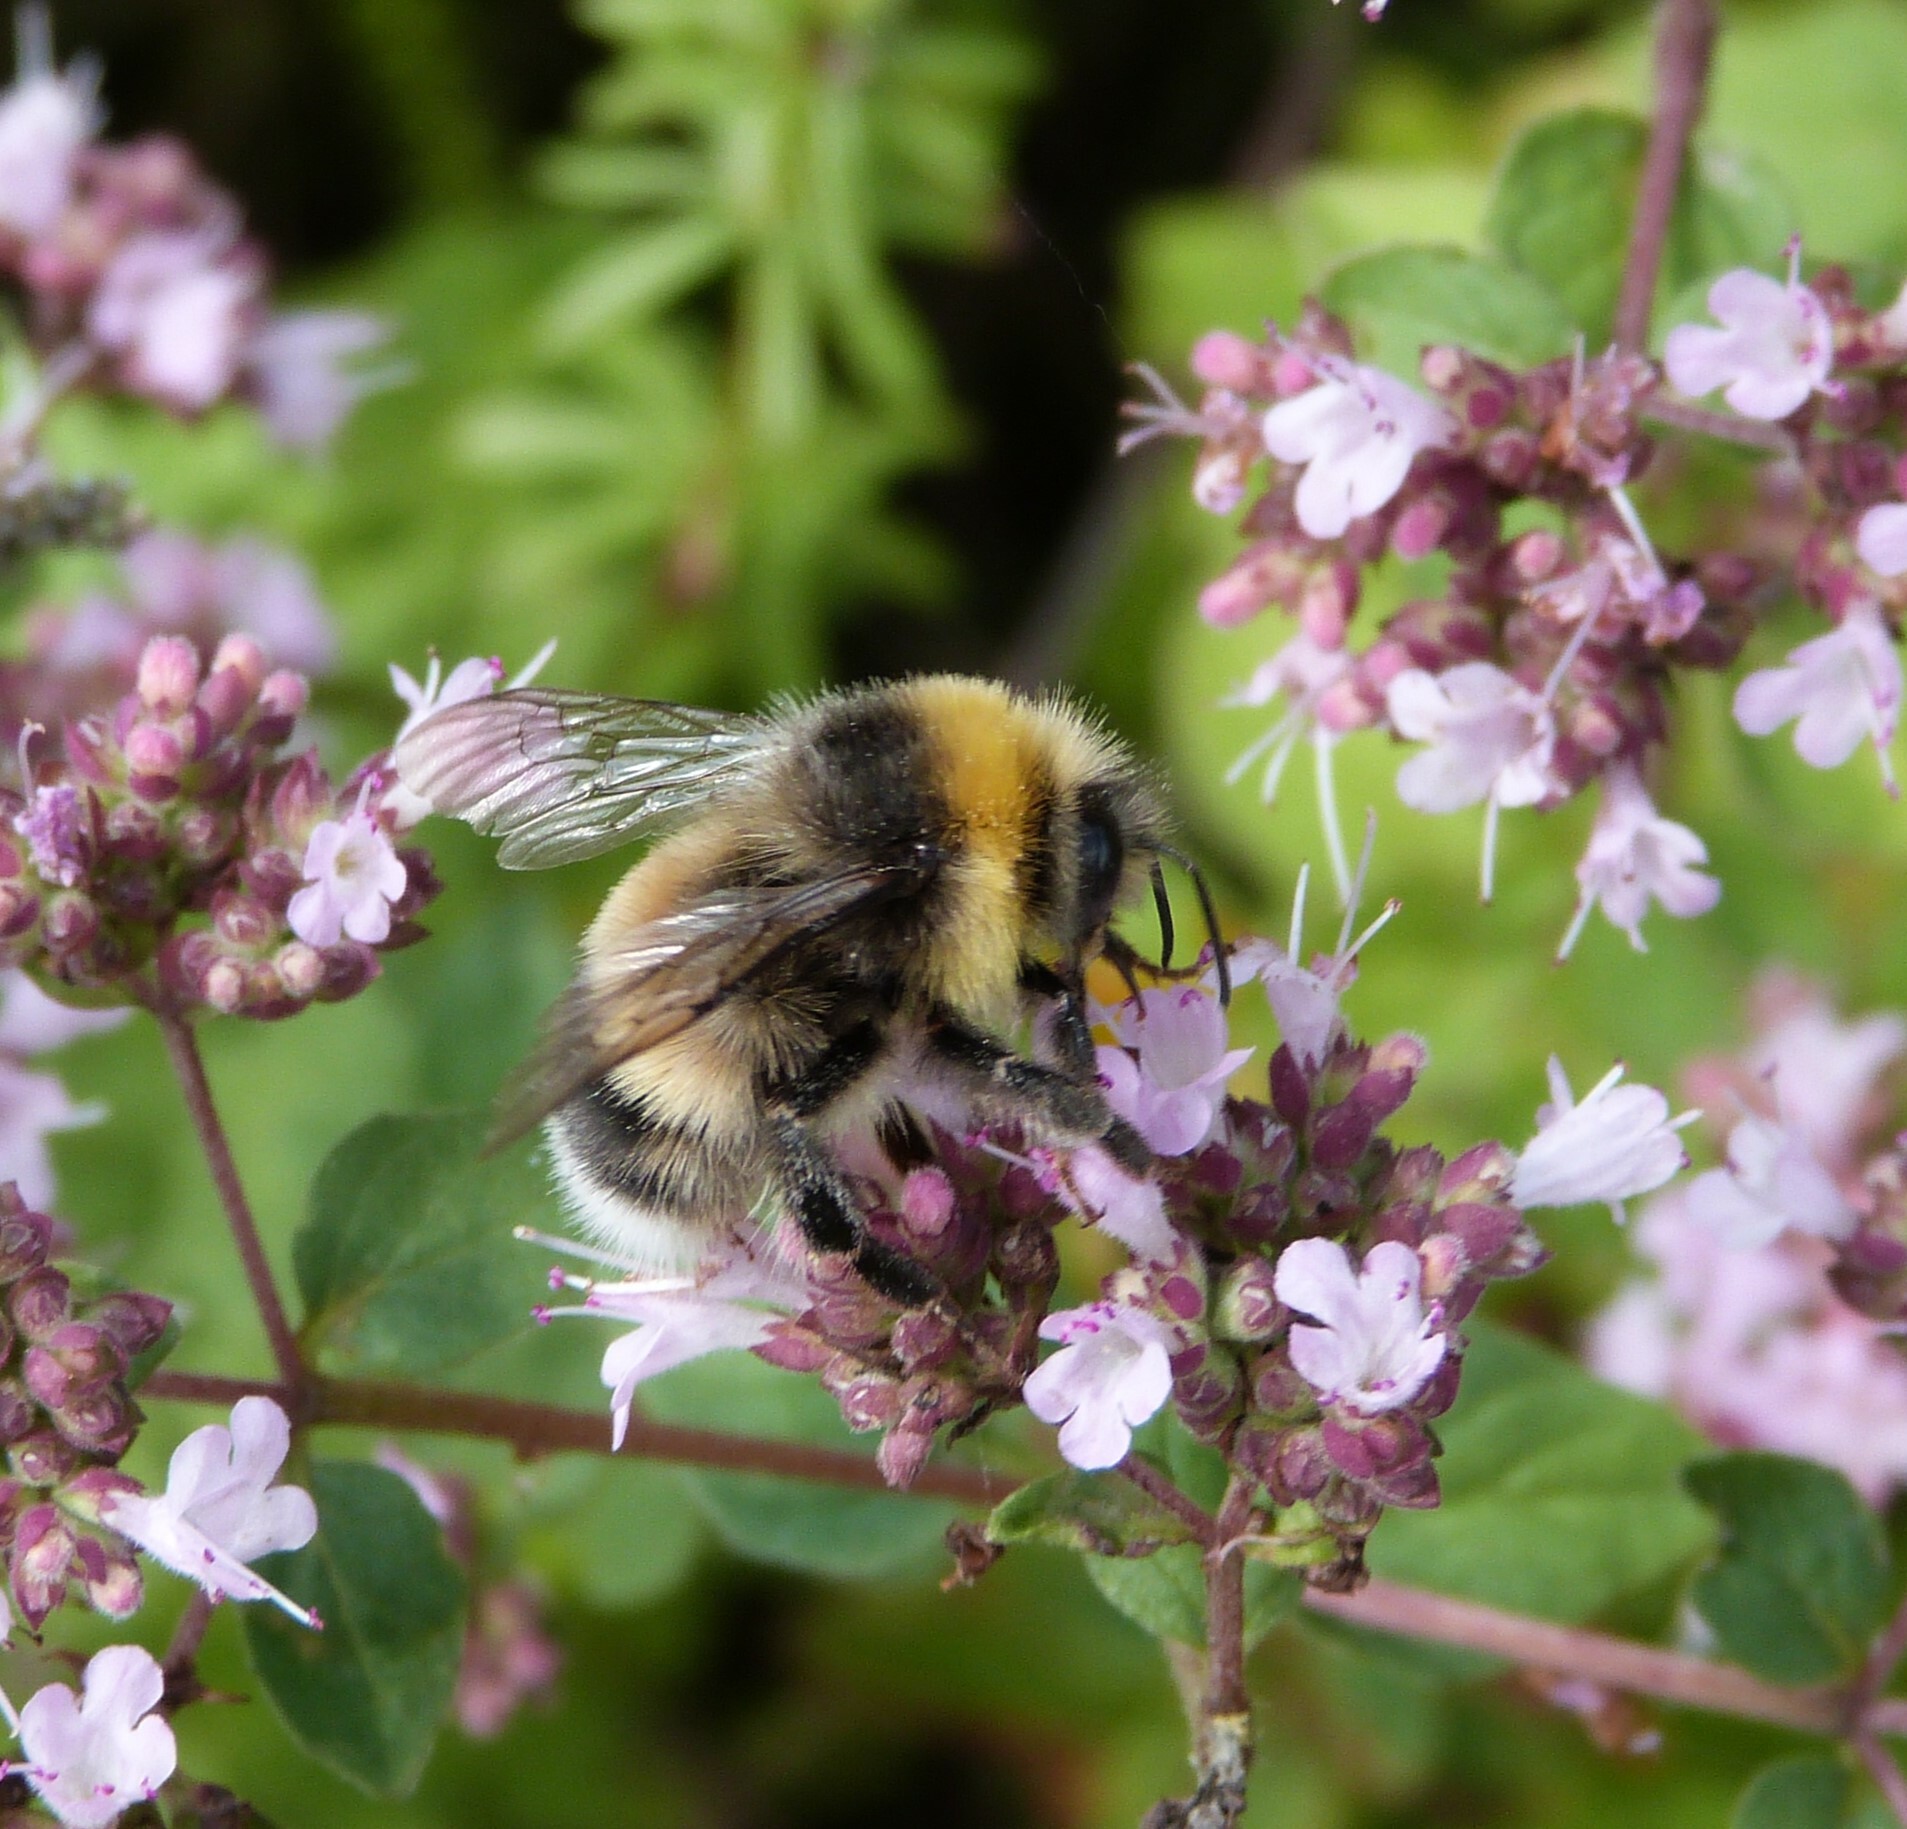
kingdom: Animalia
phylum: Arthropoda
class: Insecta
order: Hymenoptera
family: Apidae
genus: Bombus
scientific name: Bombus lucorum
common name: White-tailed bumblebee
